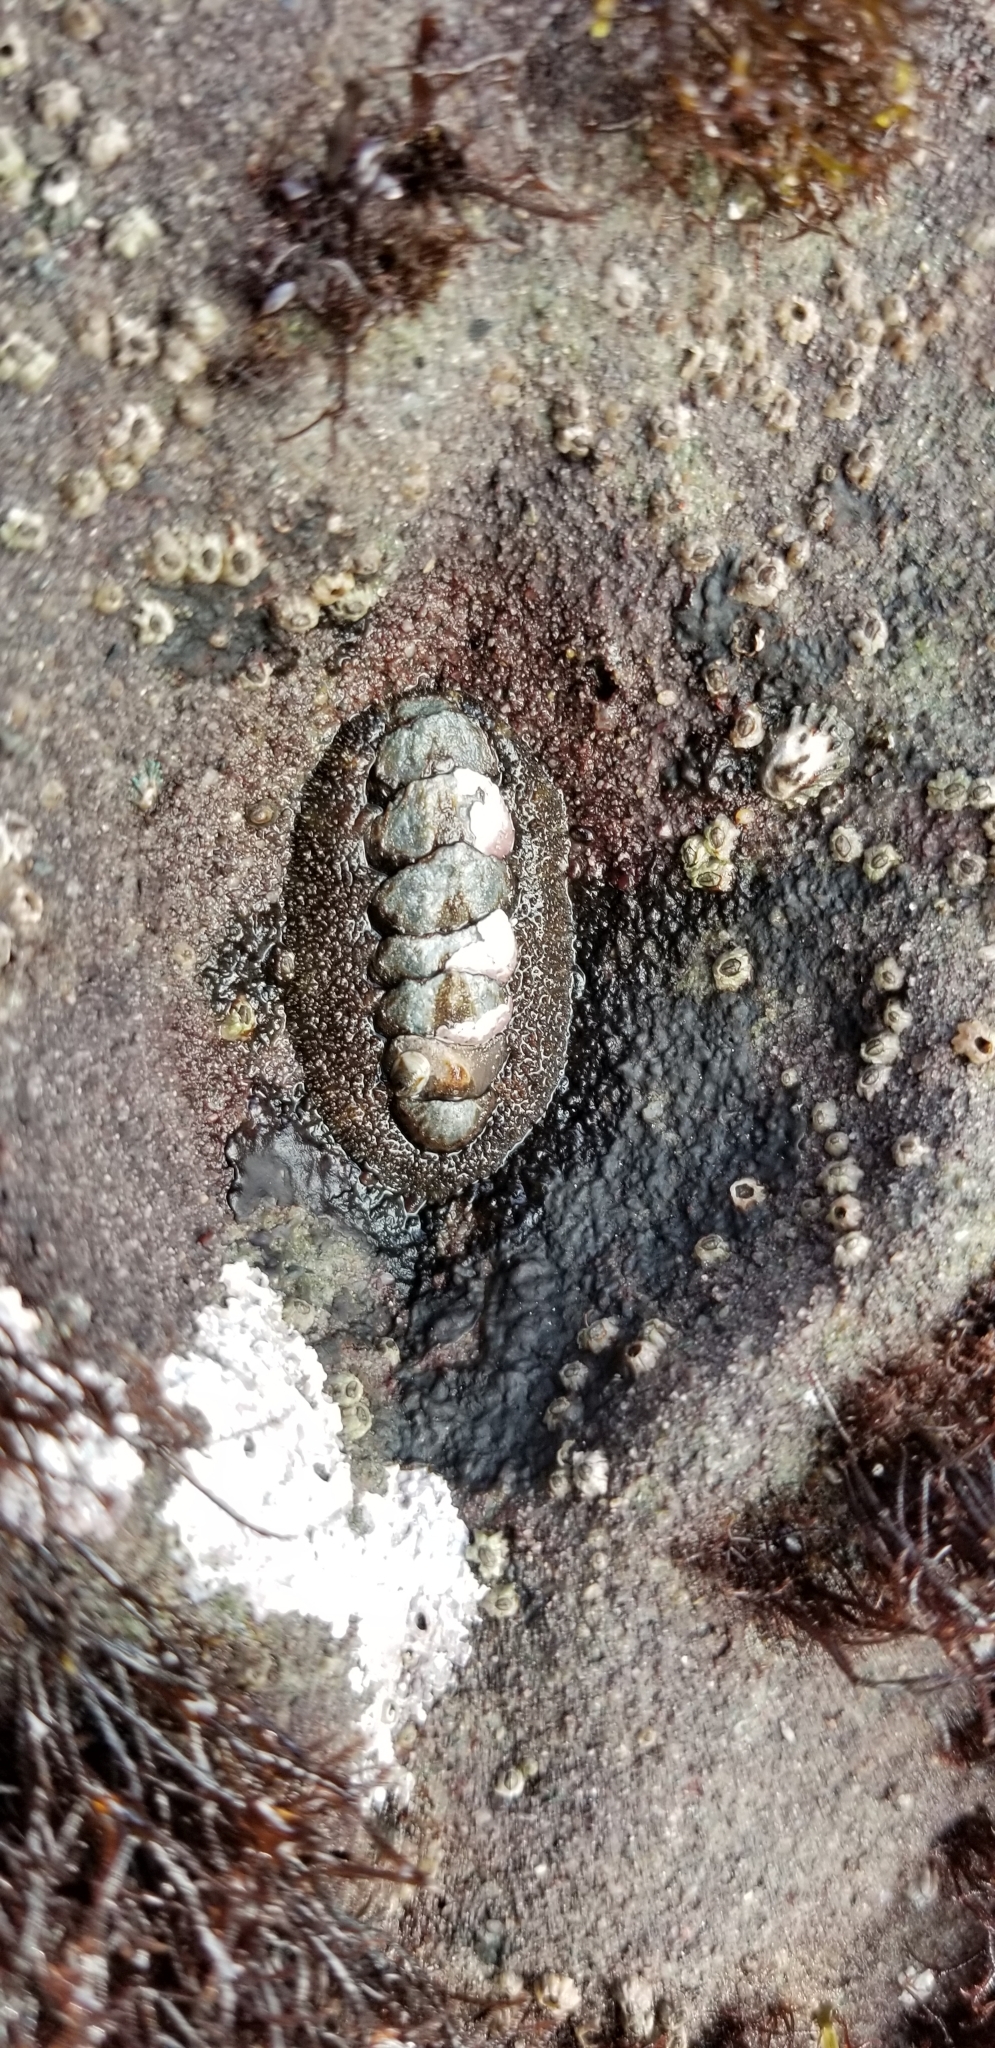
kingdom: Animalia
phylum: Mollusca
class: Polyplacophora
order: Chitonida
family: Tonicellidae
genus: Nuttallina
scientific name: Nuttallina californica
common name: California nuttall chiton
